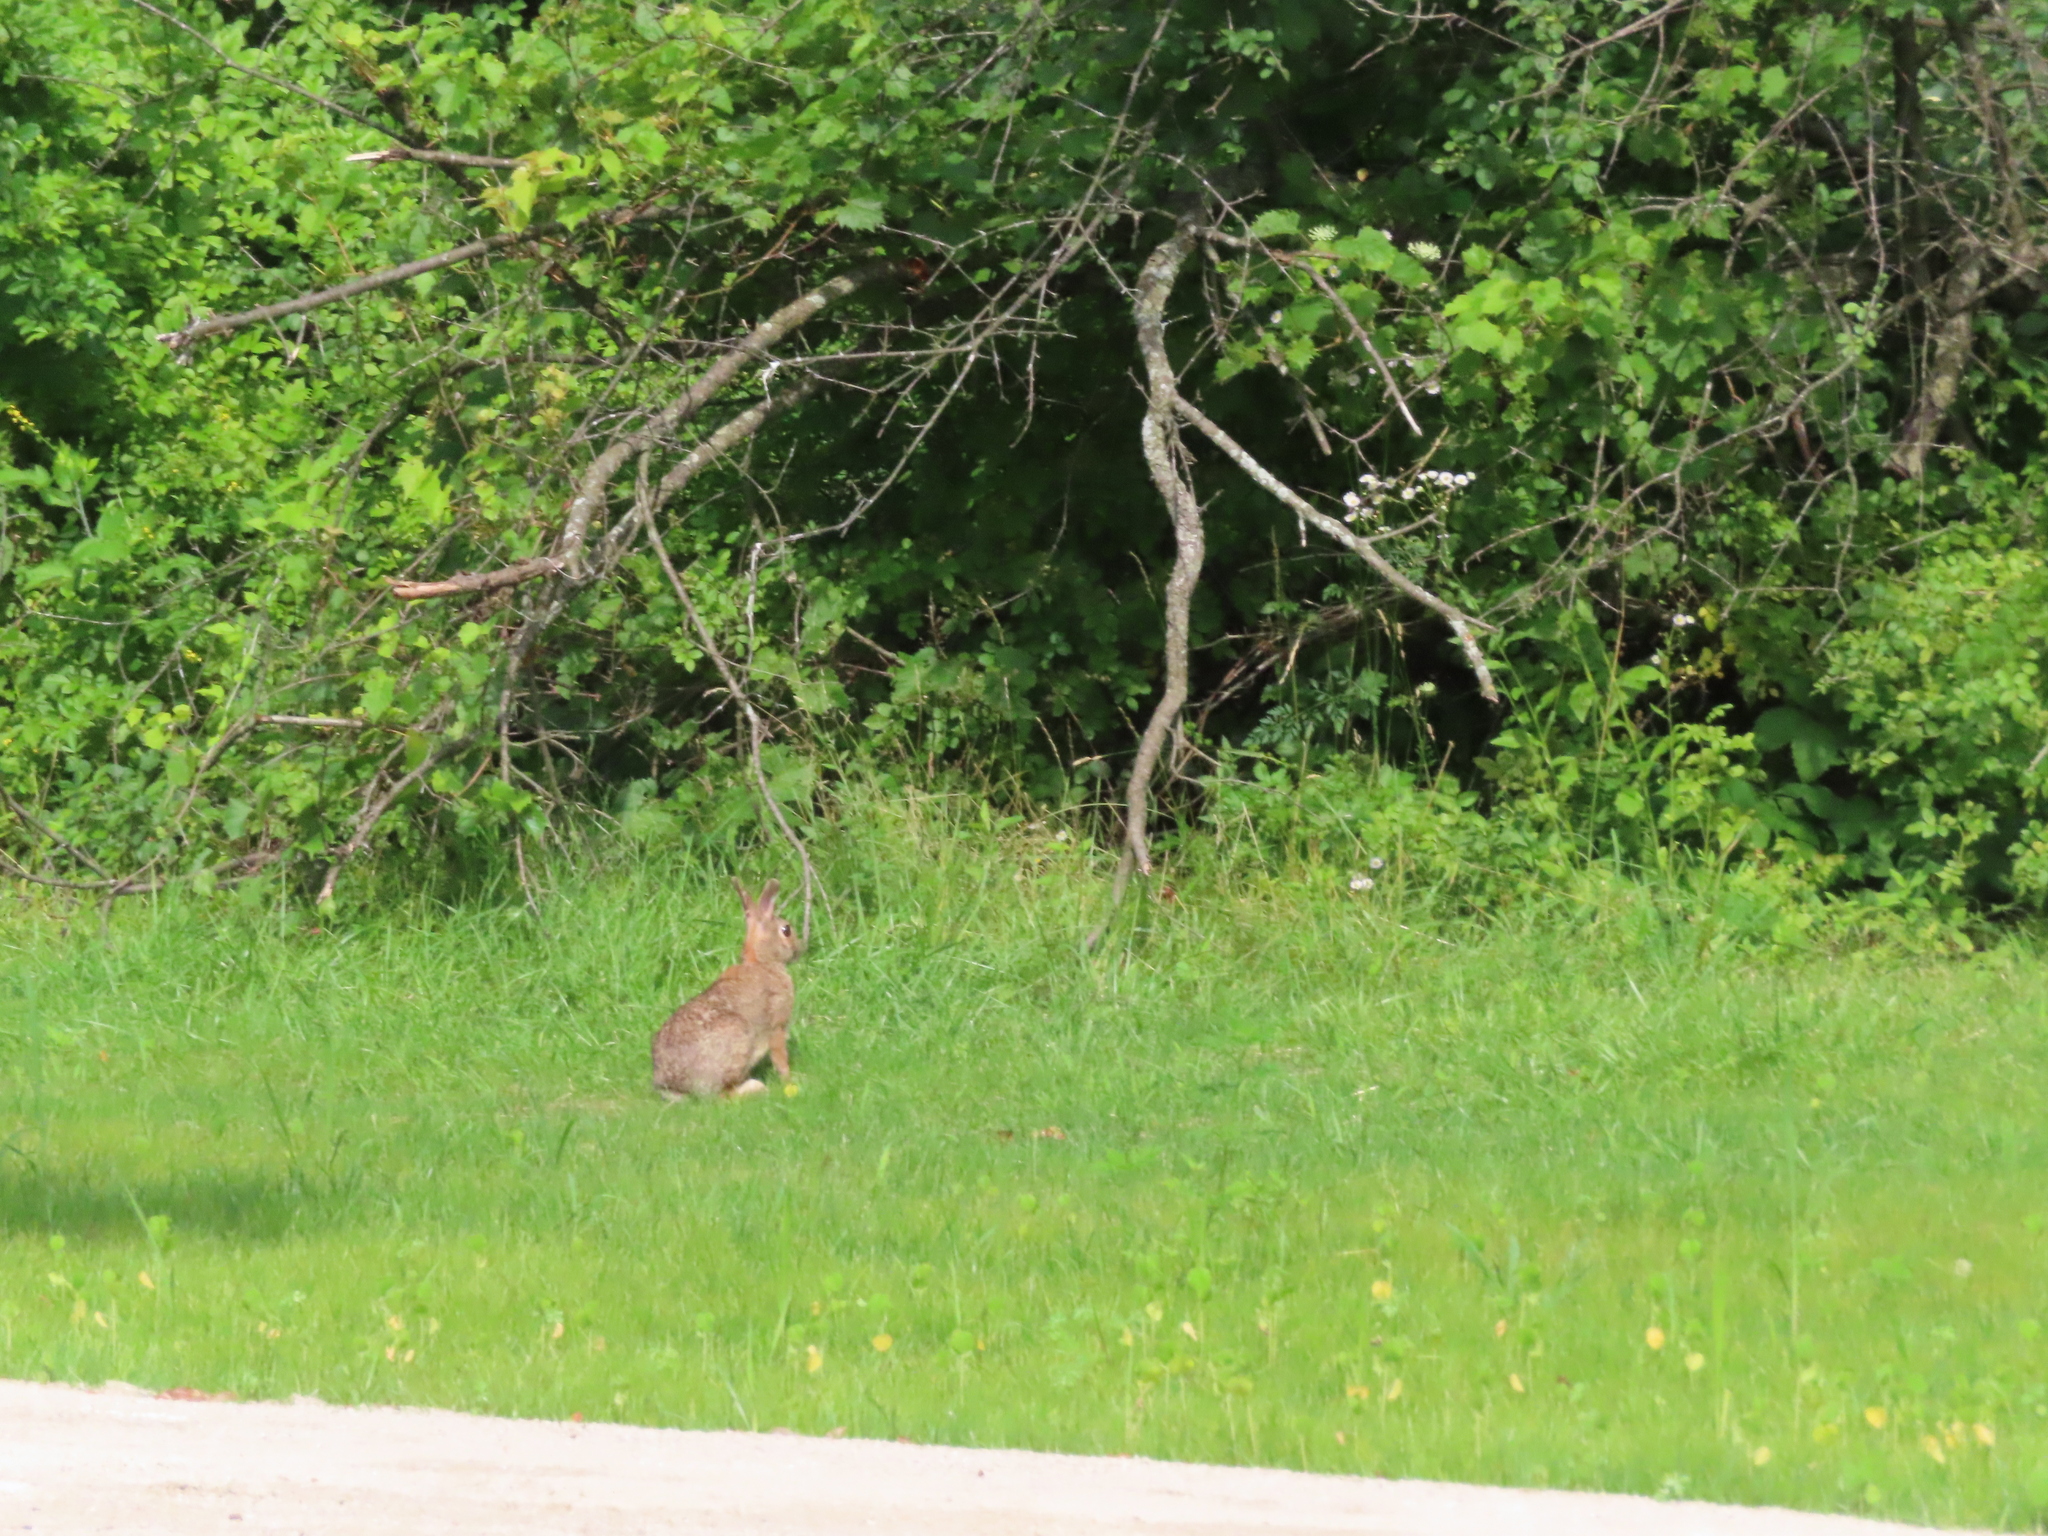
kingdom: Animalia
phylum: Chordata
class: Mammalia
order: Lagomorpha
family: Leporidae
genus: Sylvilagus
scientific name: Sylvilagus floridanus
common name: Eastern cottontail
